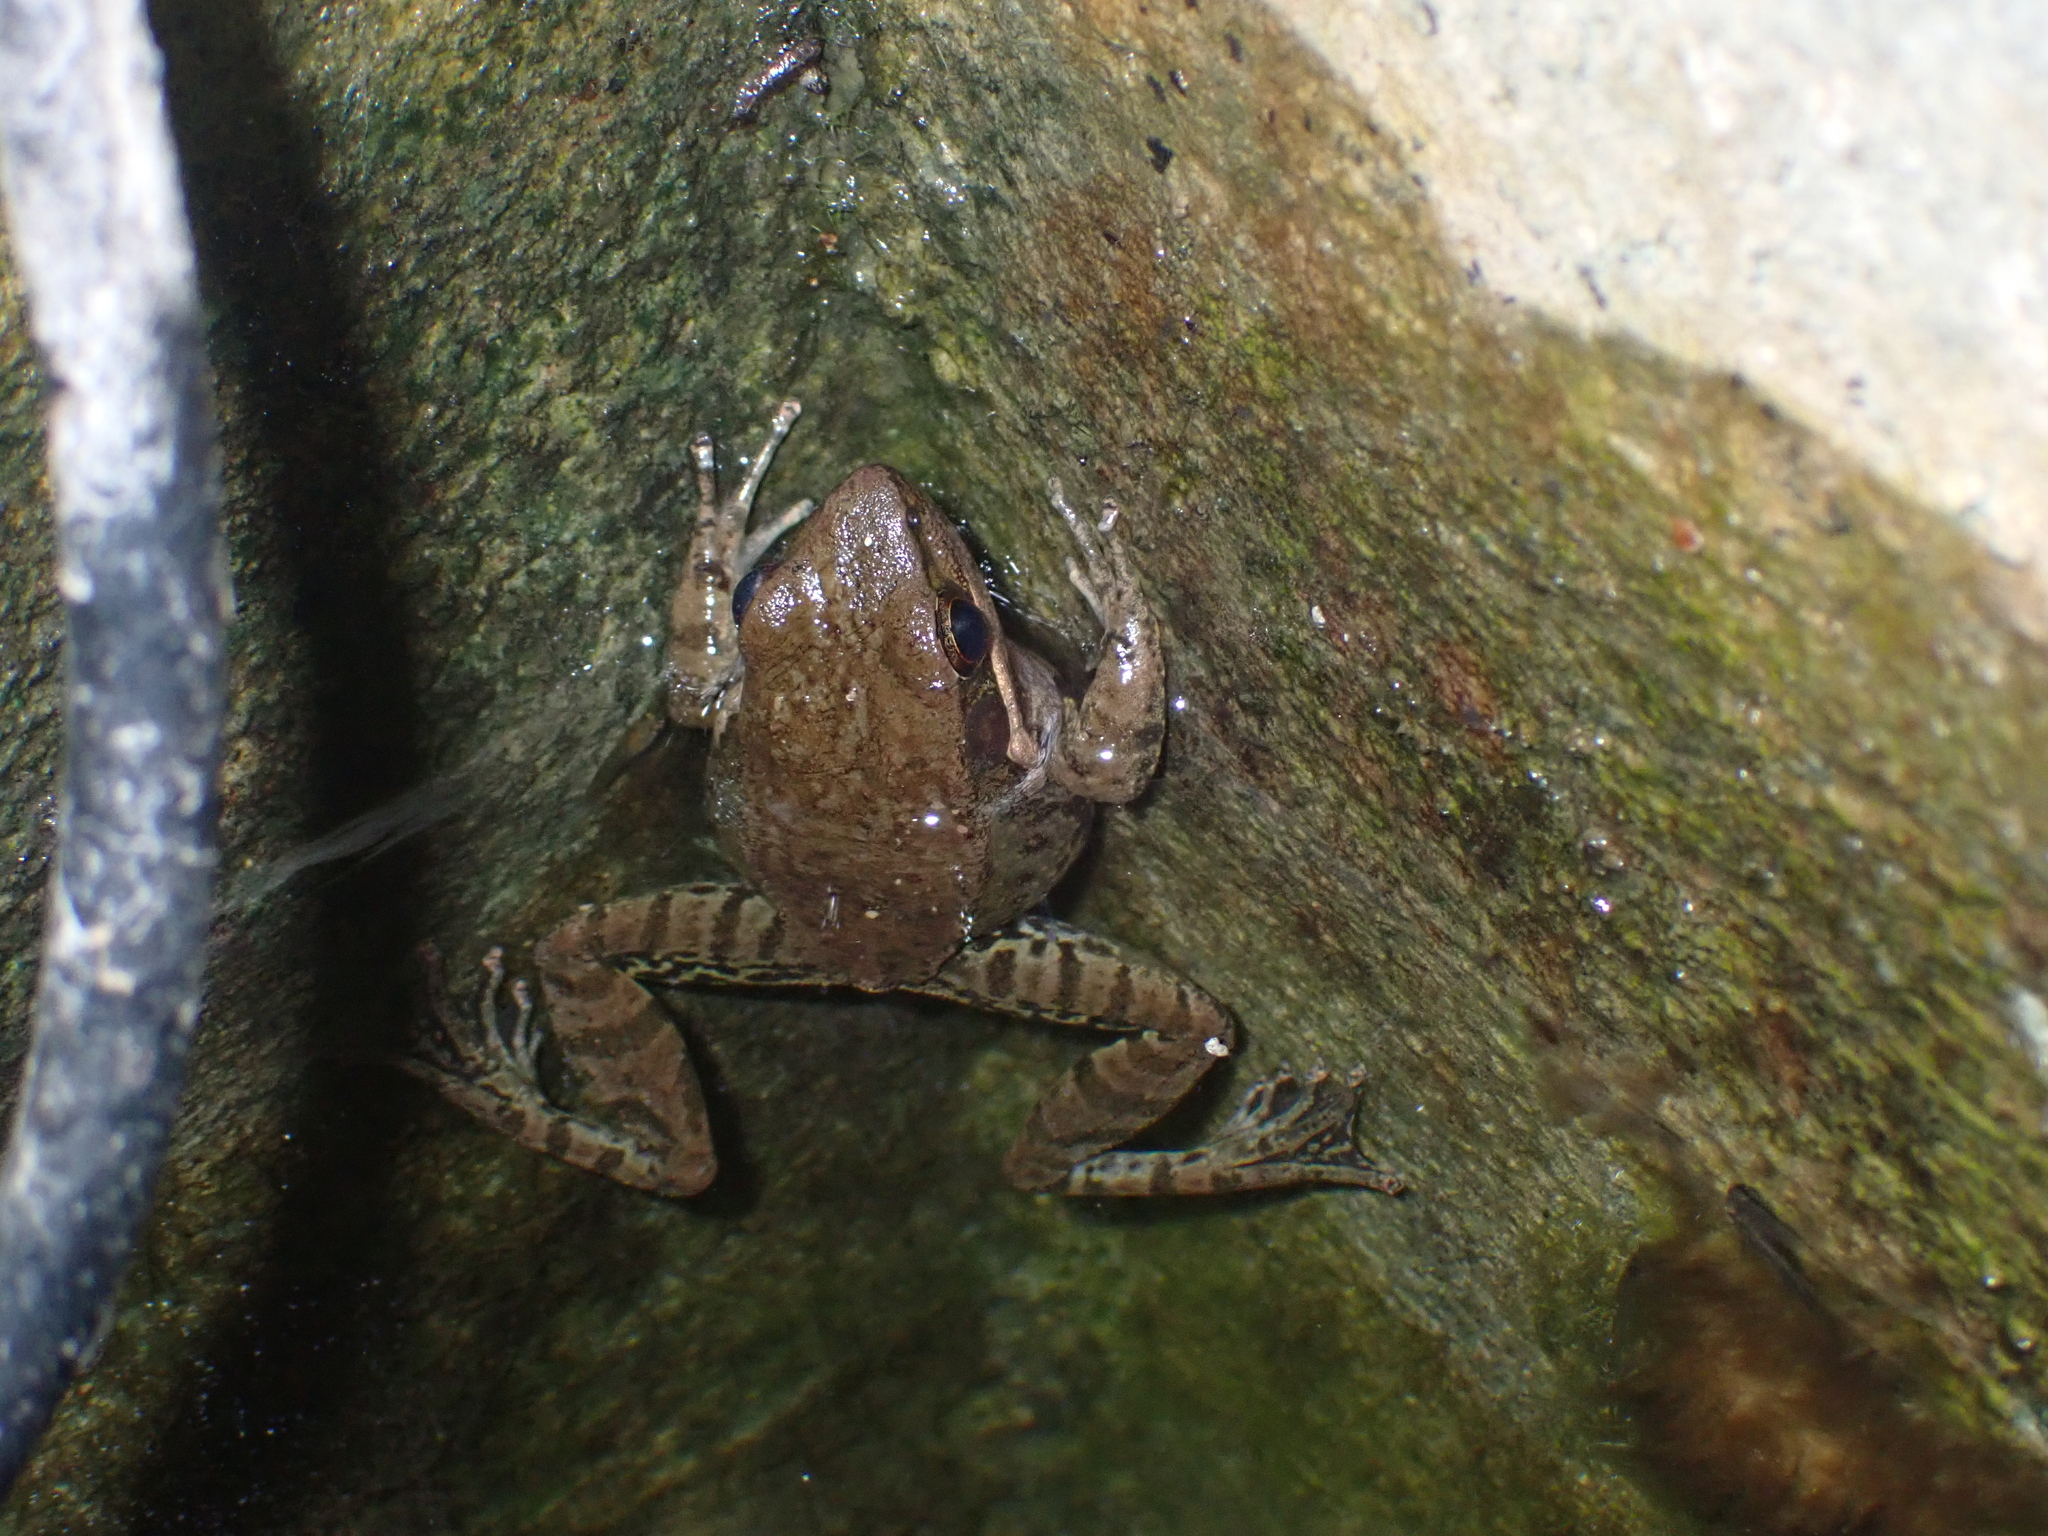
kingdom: Animalia
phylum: Chordata
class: Amphibia
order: Anura
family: Ranidae
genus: Sylvirana
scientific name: Sylvirana nigrovittata
